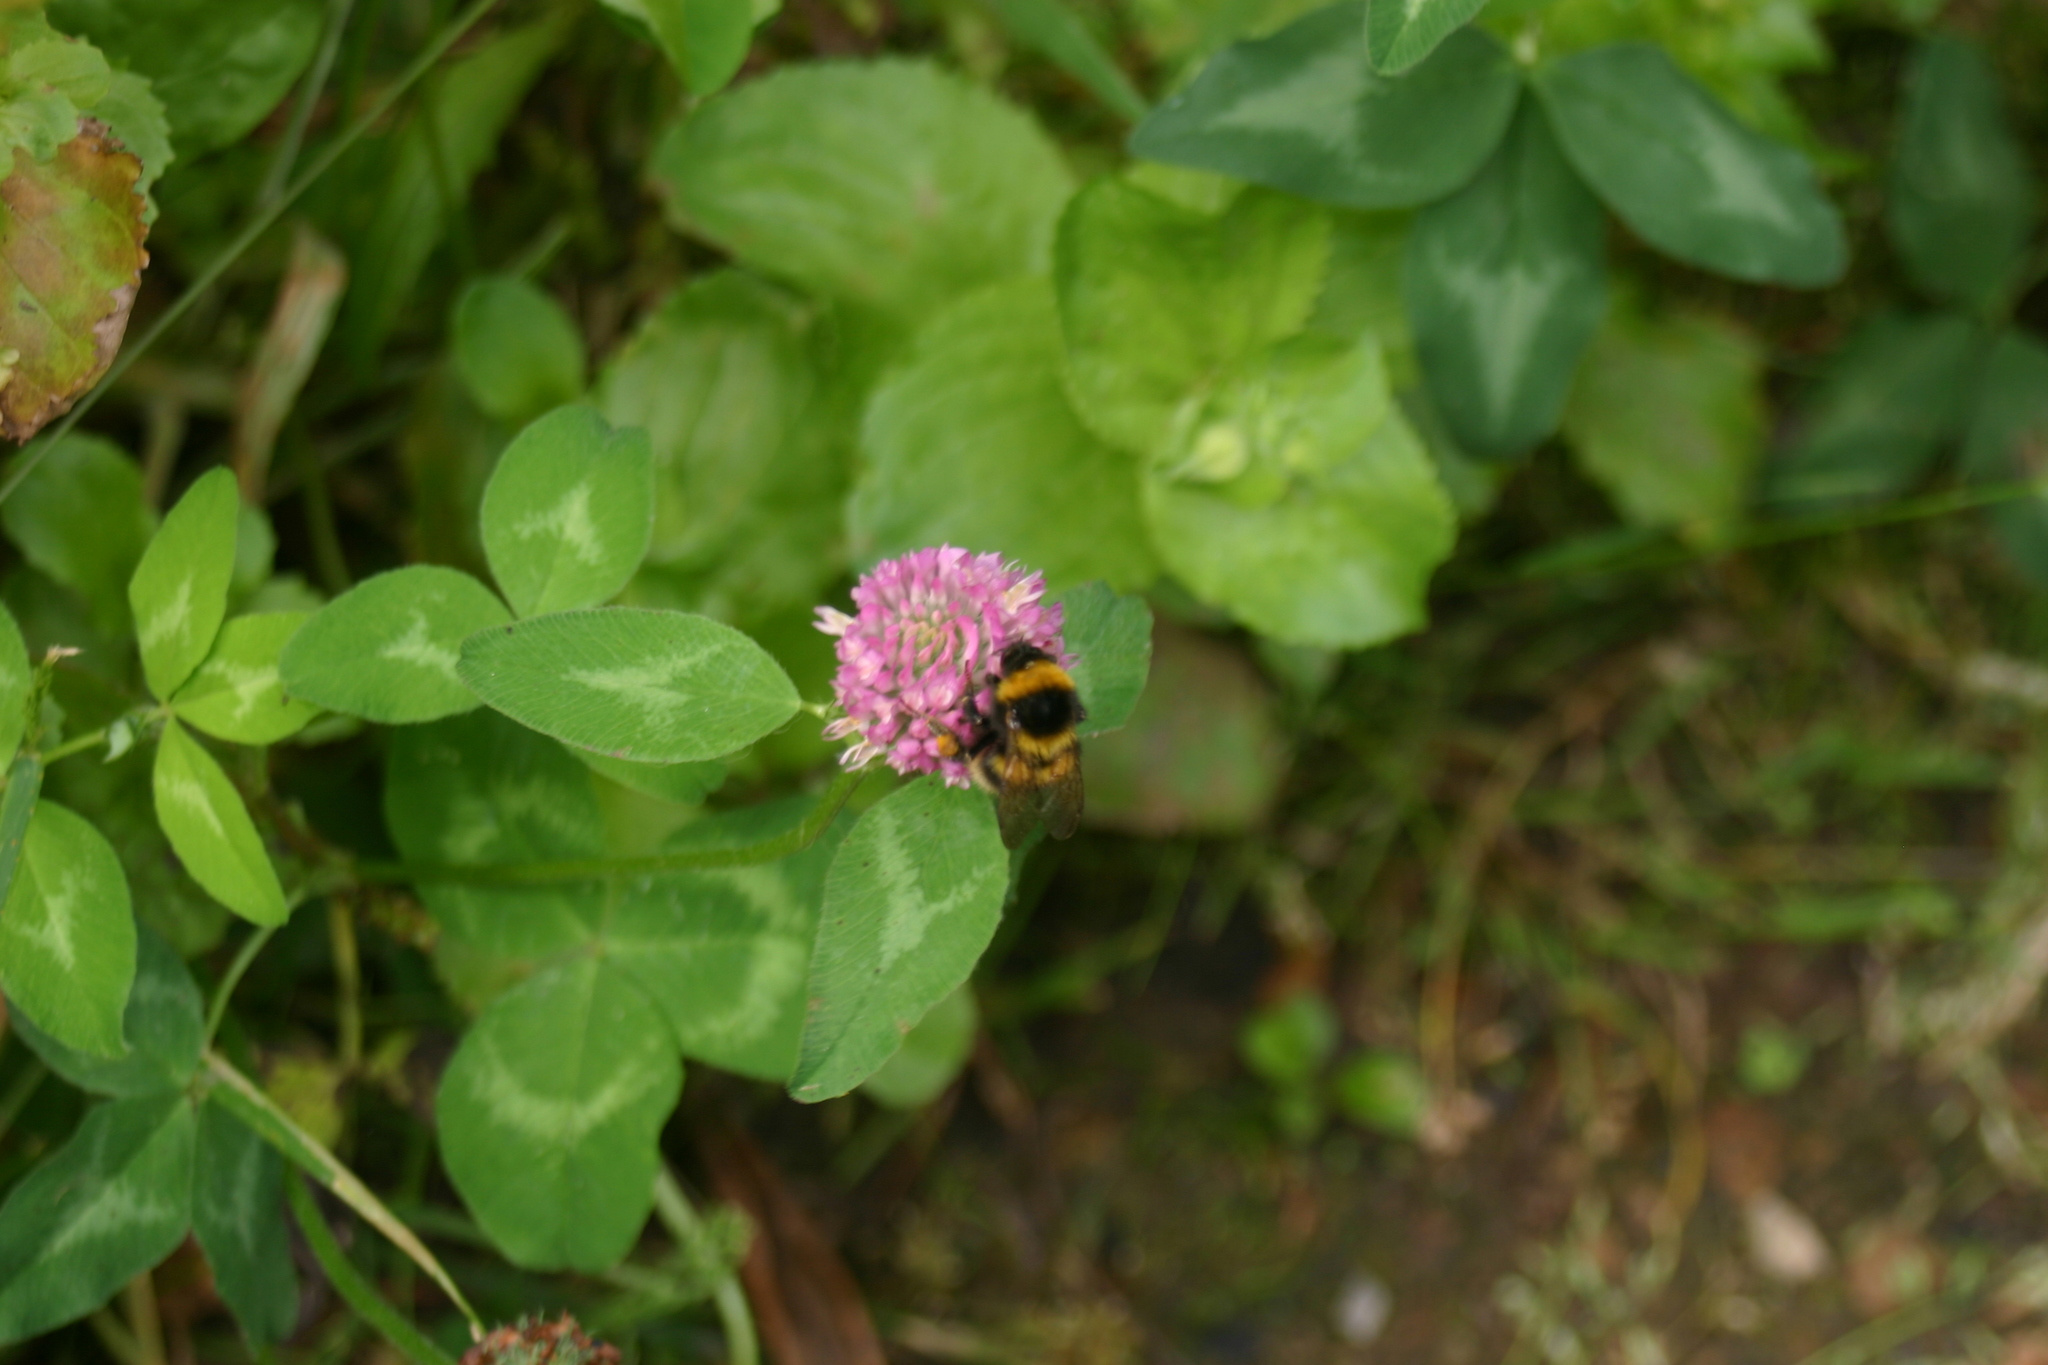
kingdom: Animalia
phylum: Arthropoda
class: Insecta
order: Hymenoptera
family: Apidae
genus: Megabombus
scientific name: Megabombus
